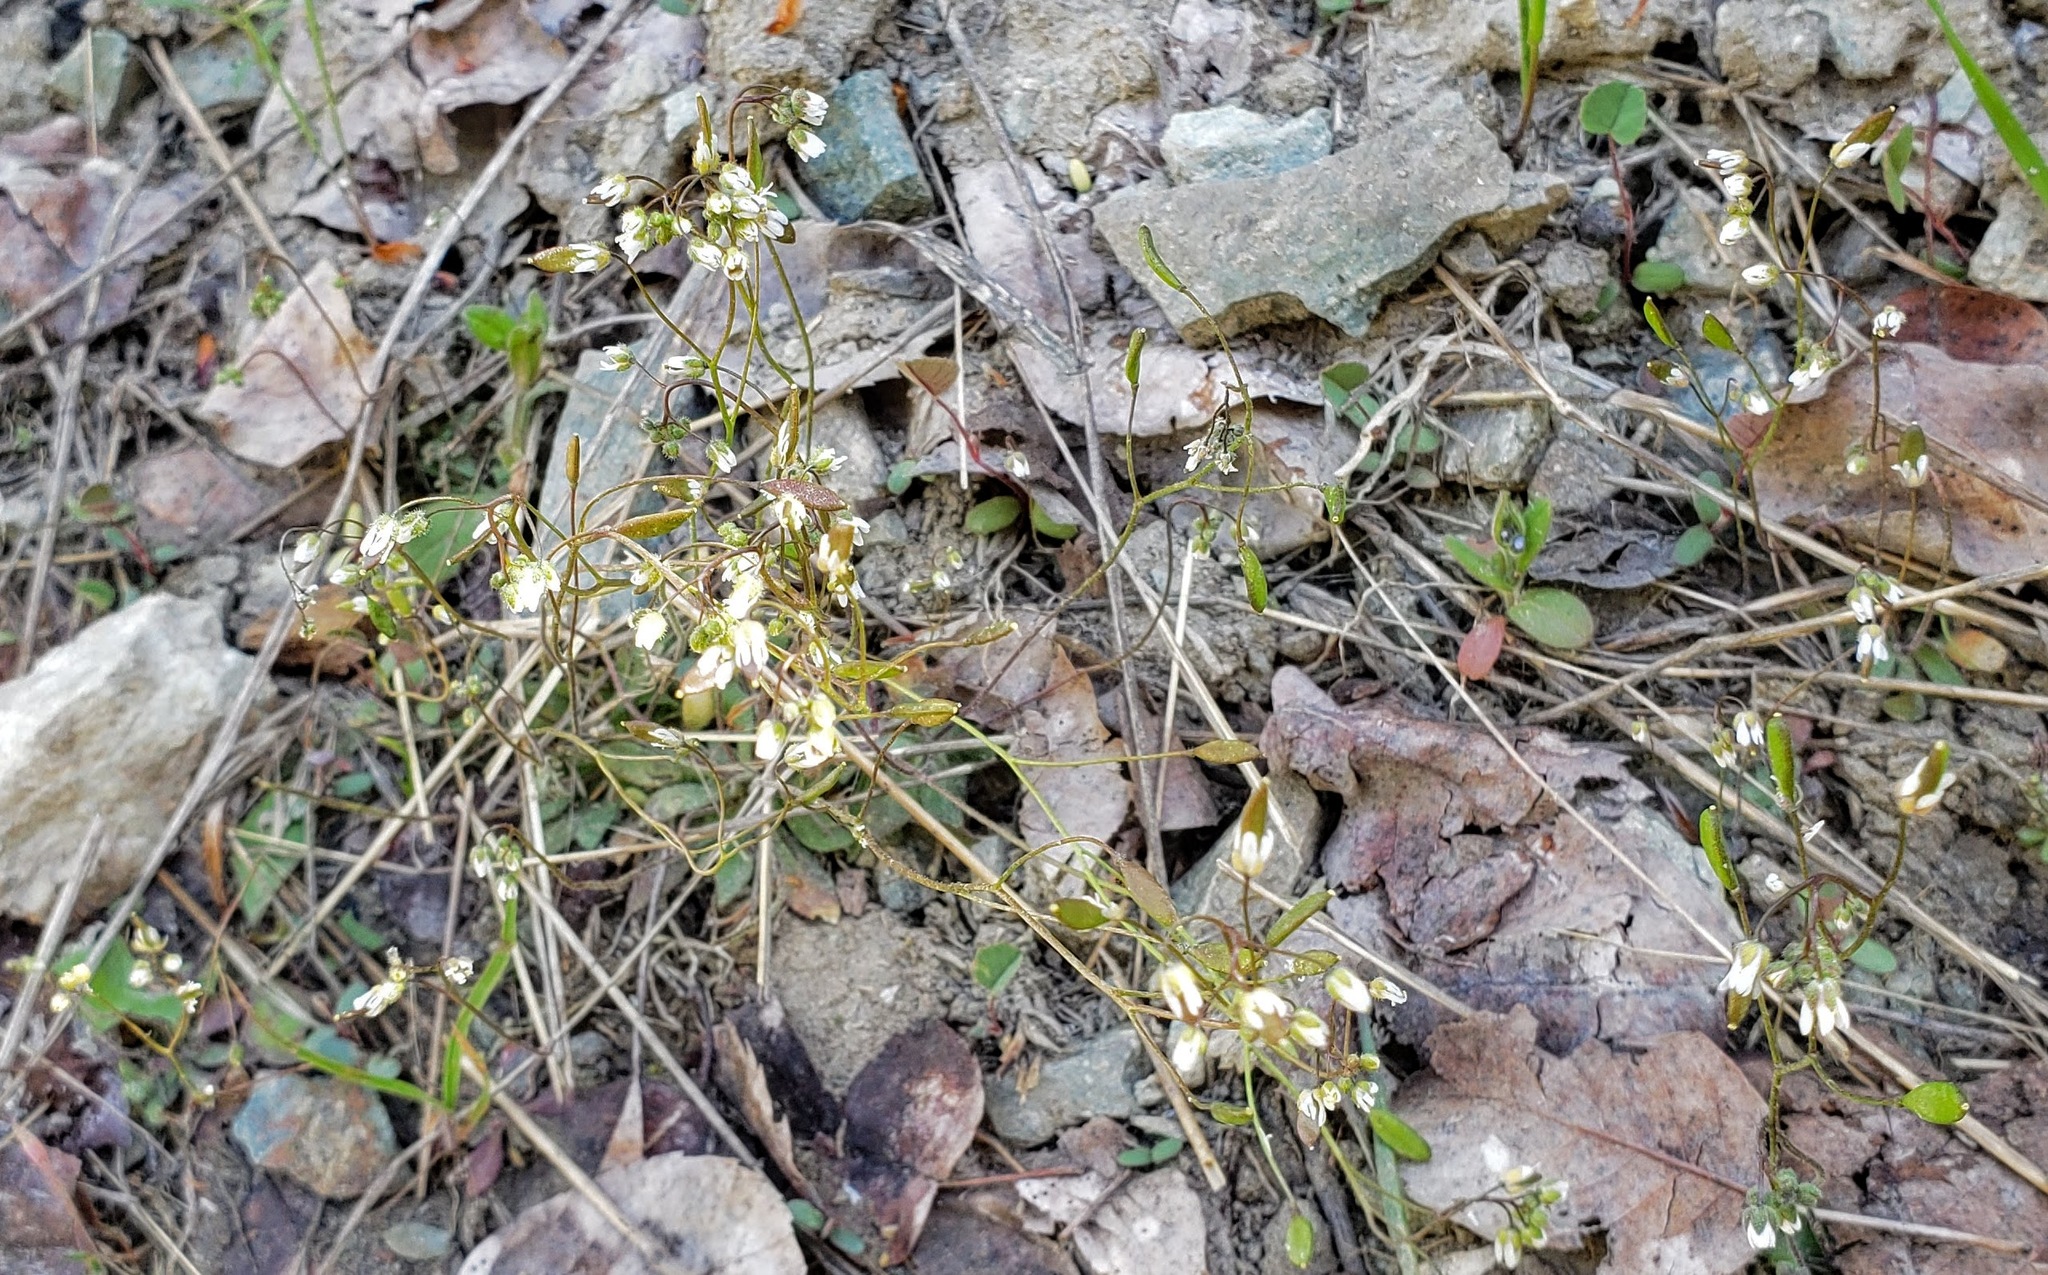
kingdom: Plantae
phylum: Tracheophyta
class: Magnoliopsida
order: Brassicales
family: Brassicaceae
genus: Draba
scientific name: Draba verna
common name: Spring draba
